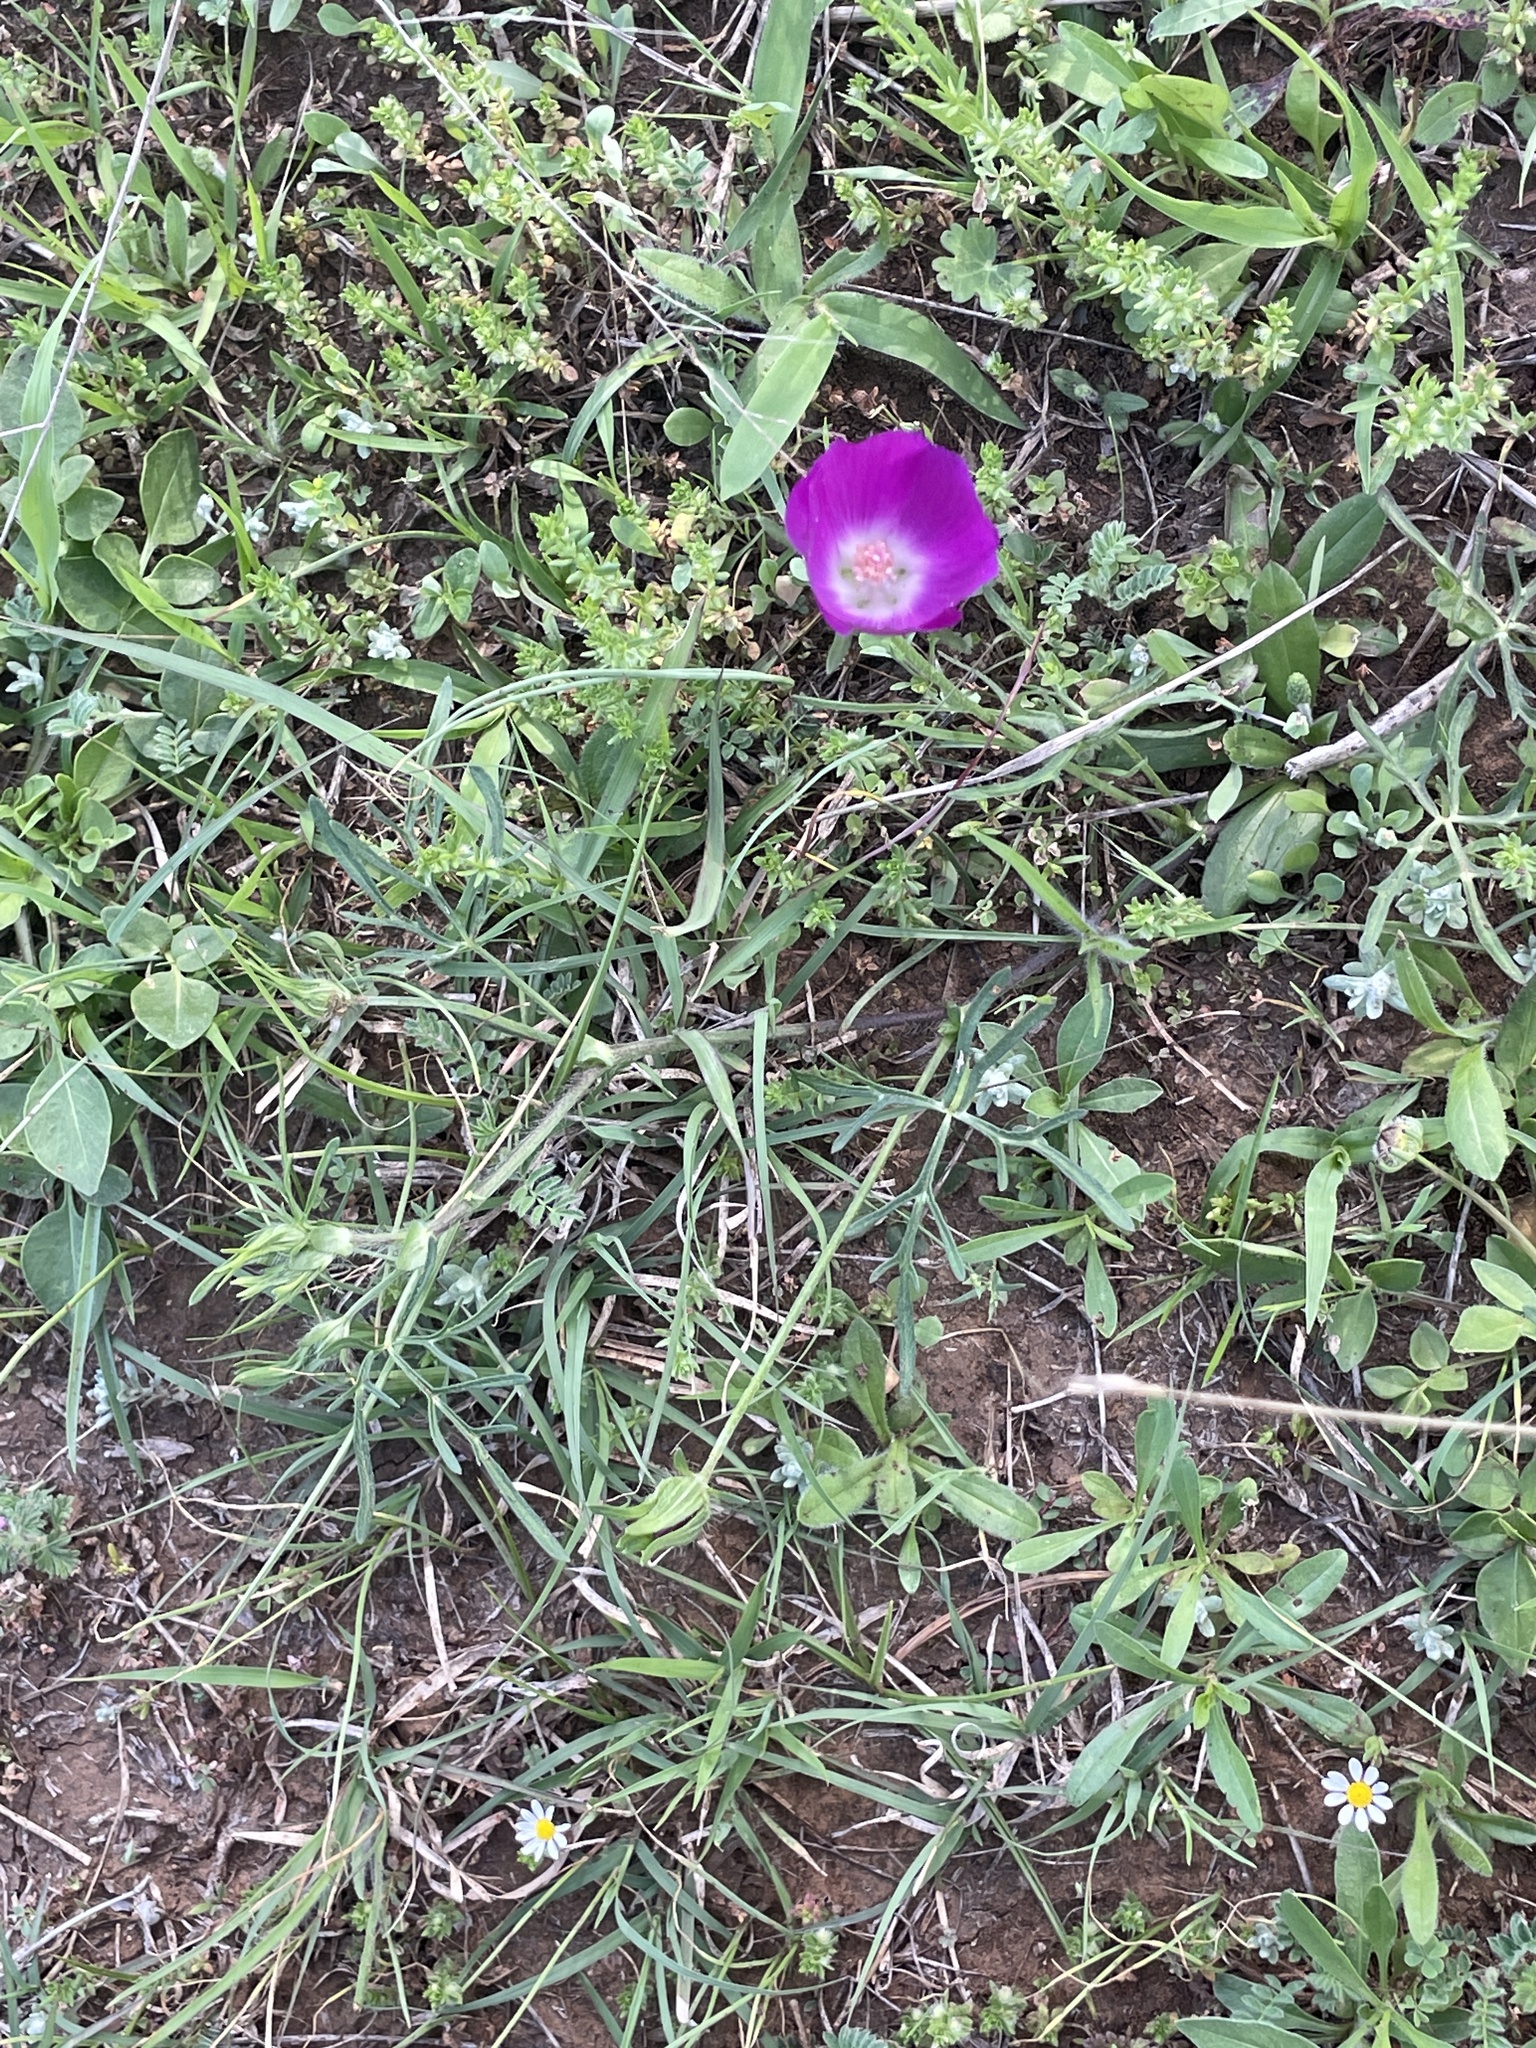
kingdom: Plantae
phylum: Tracheophyta
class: Magnoliopsida
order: Malvales
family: Malvaceae
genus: Callirhoe
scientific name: Callirhoe involucrata
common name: Purple poppy-mallow
